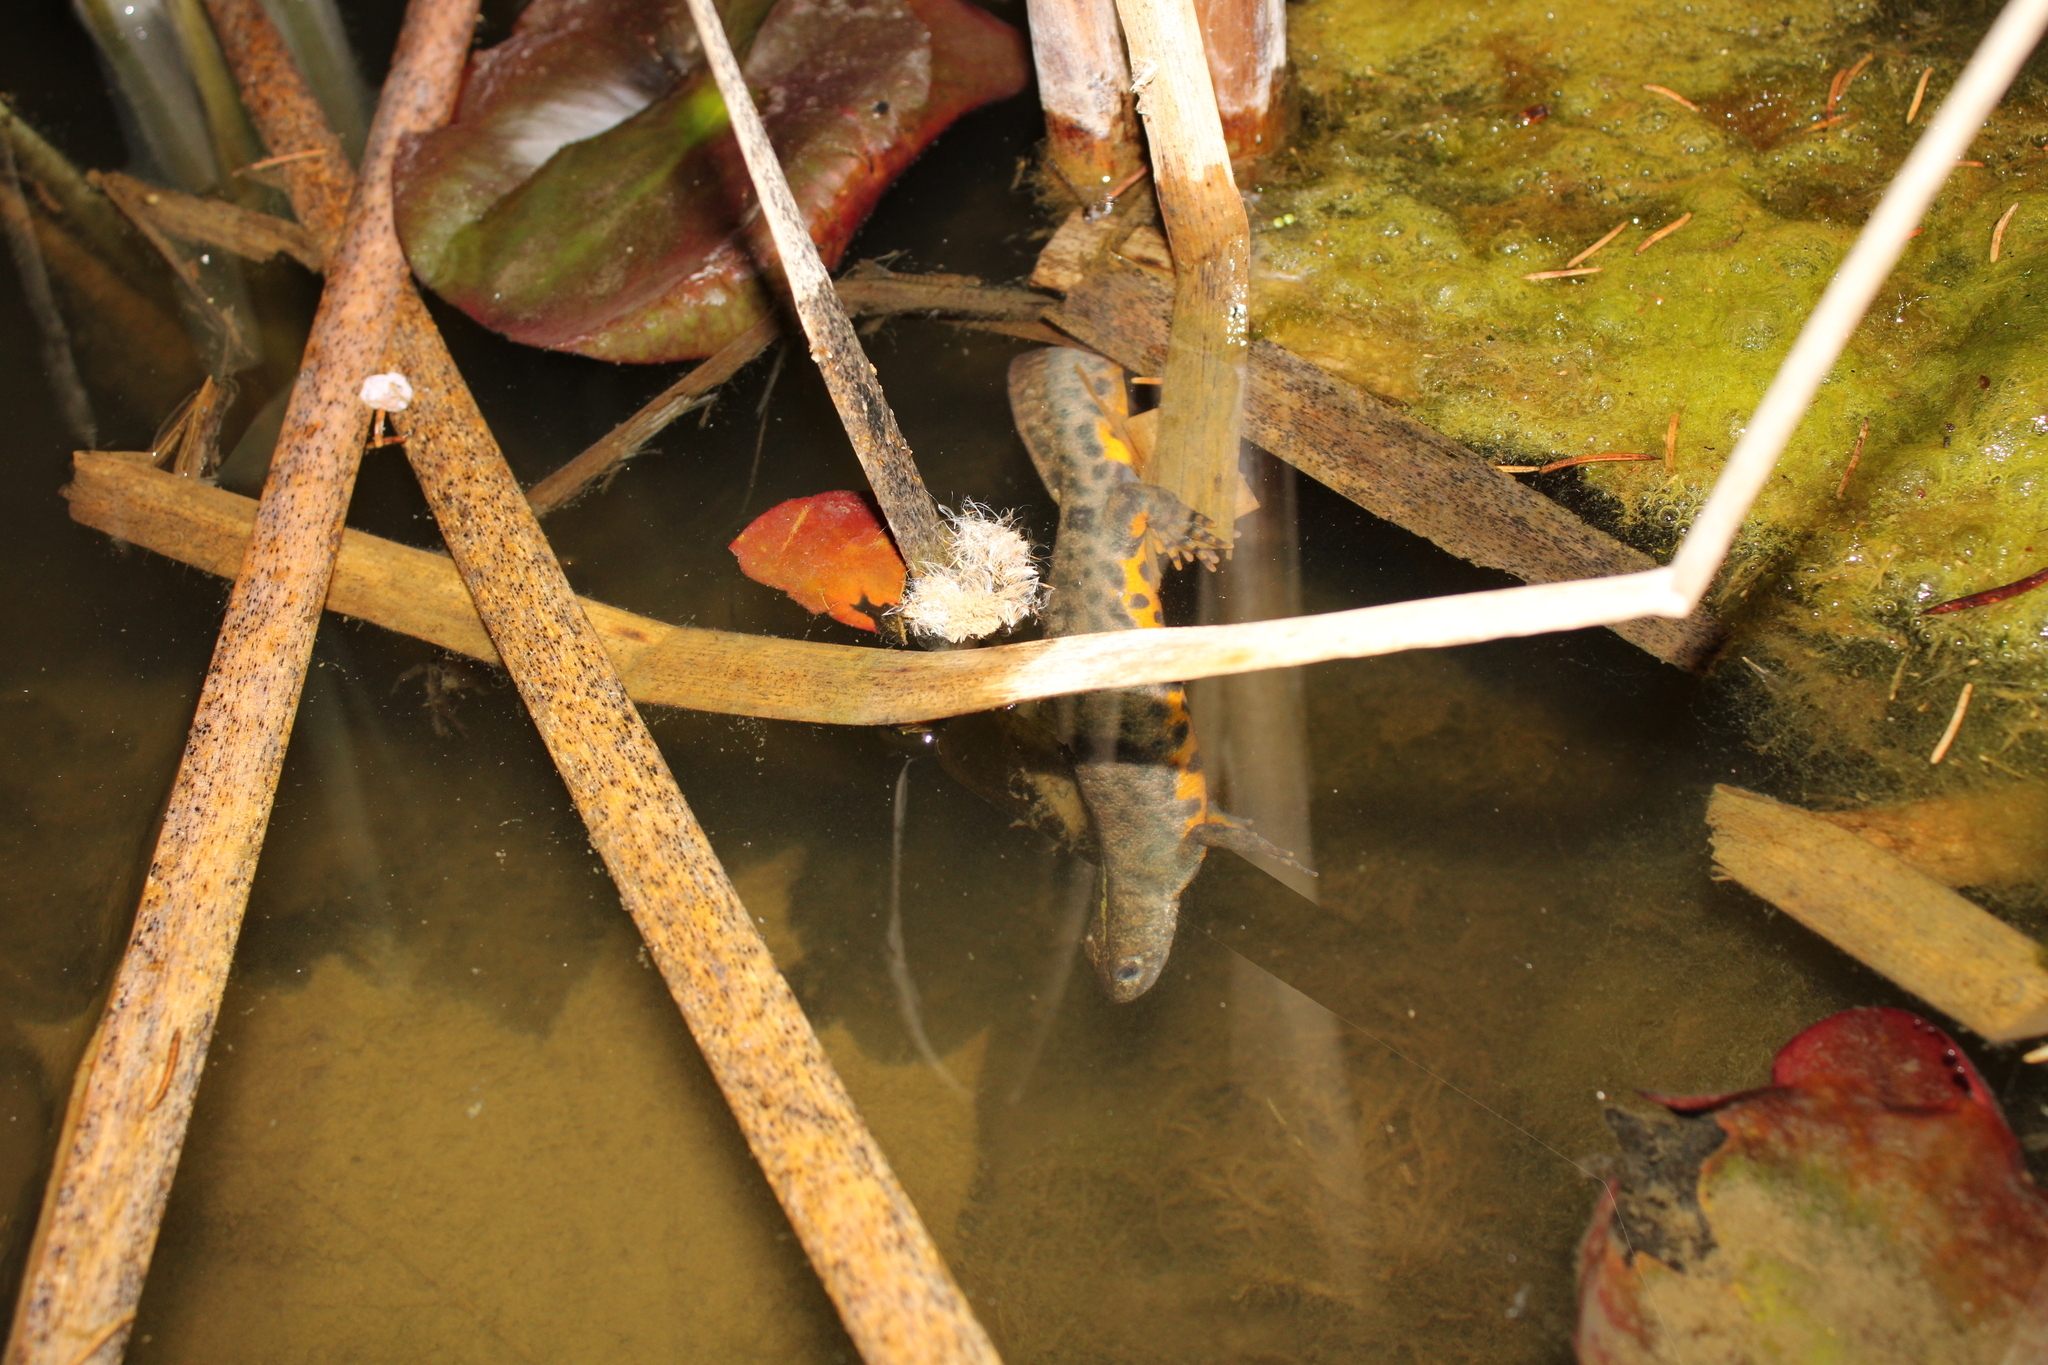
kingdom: Animalia
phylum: Chordata
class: Amphibia
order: Caudata
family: Salamandridae
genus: Triturus
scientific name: Triturus carnifex
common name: Italian crested newt
